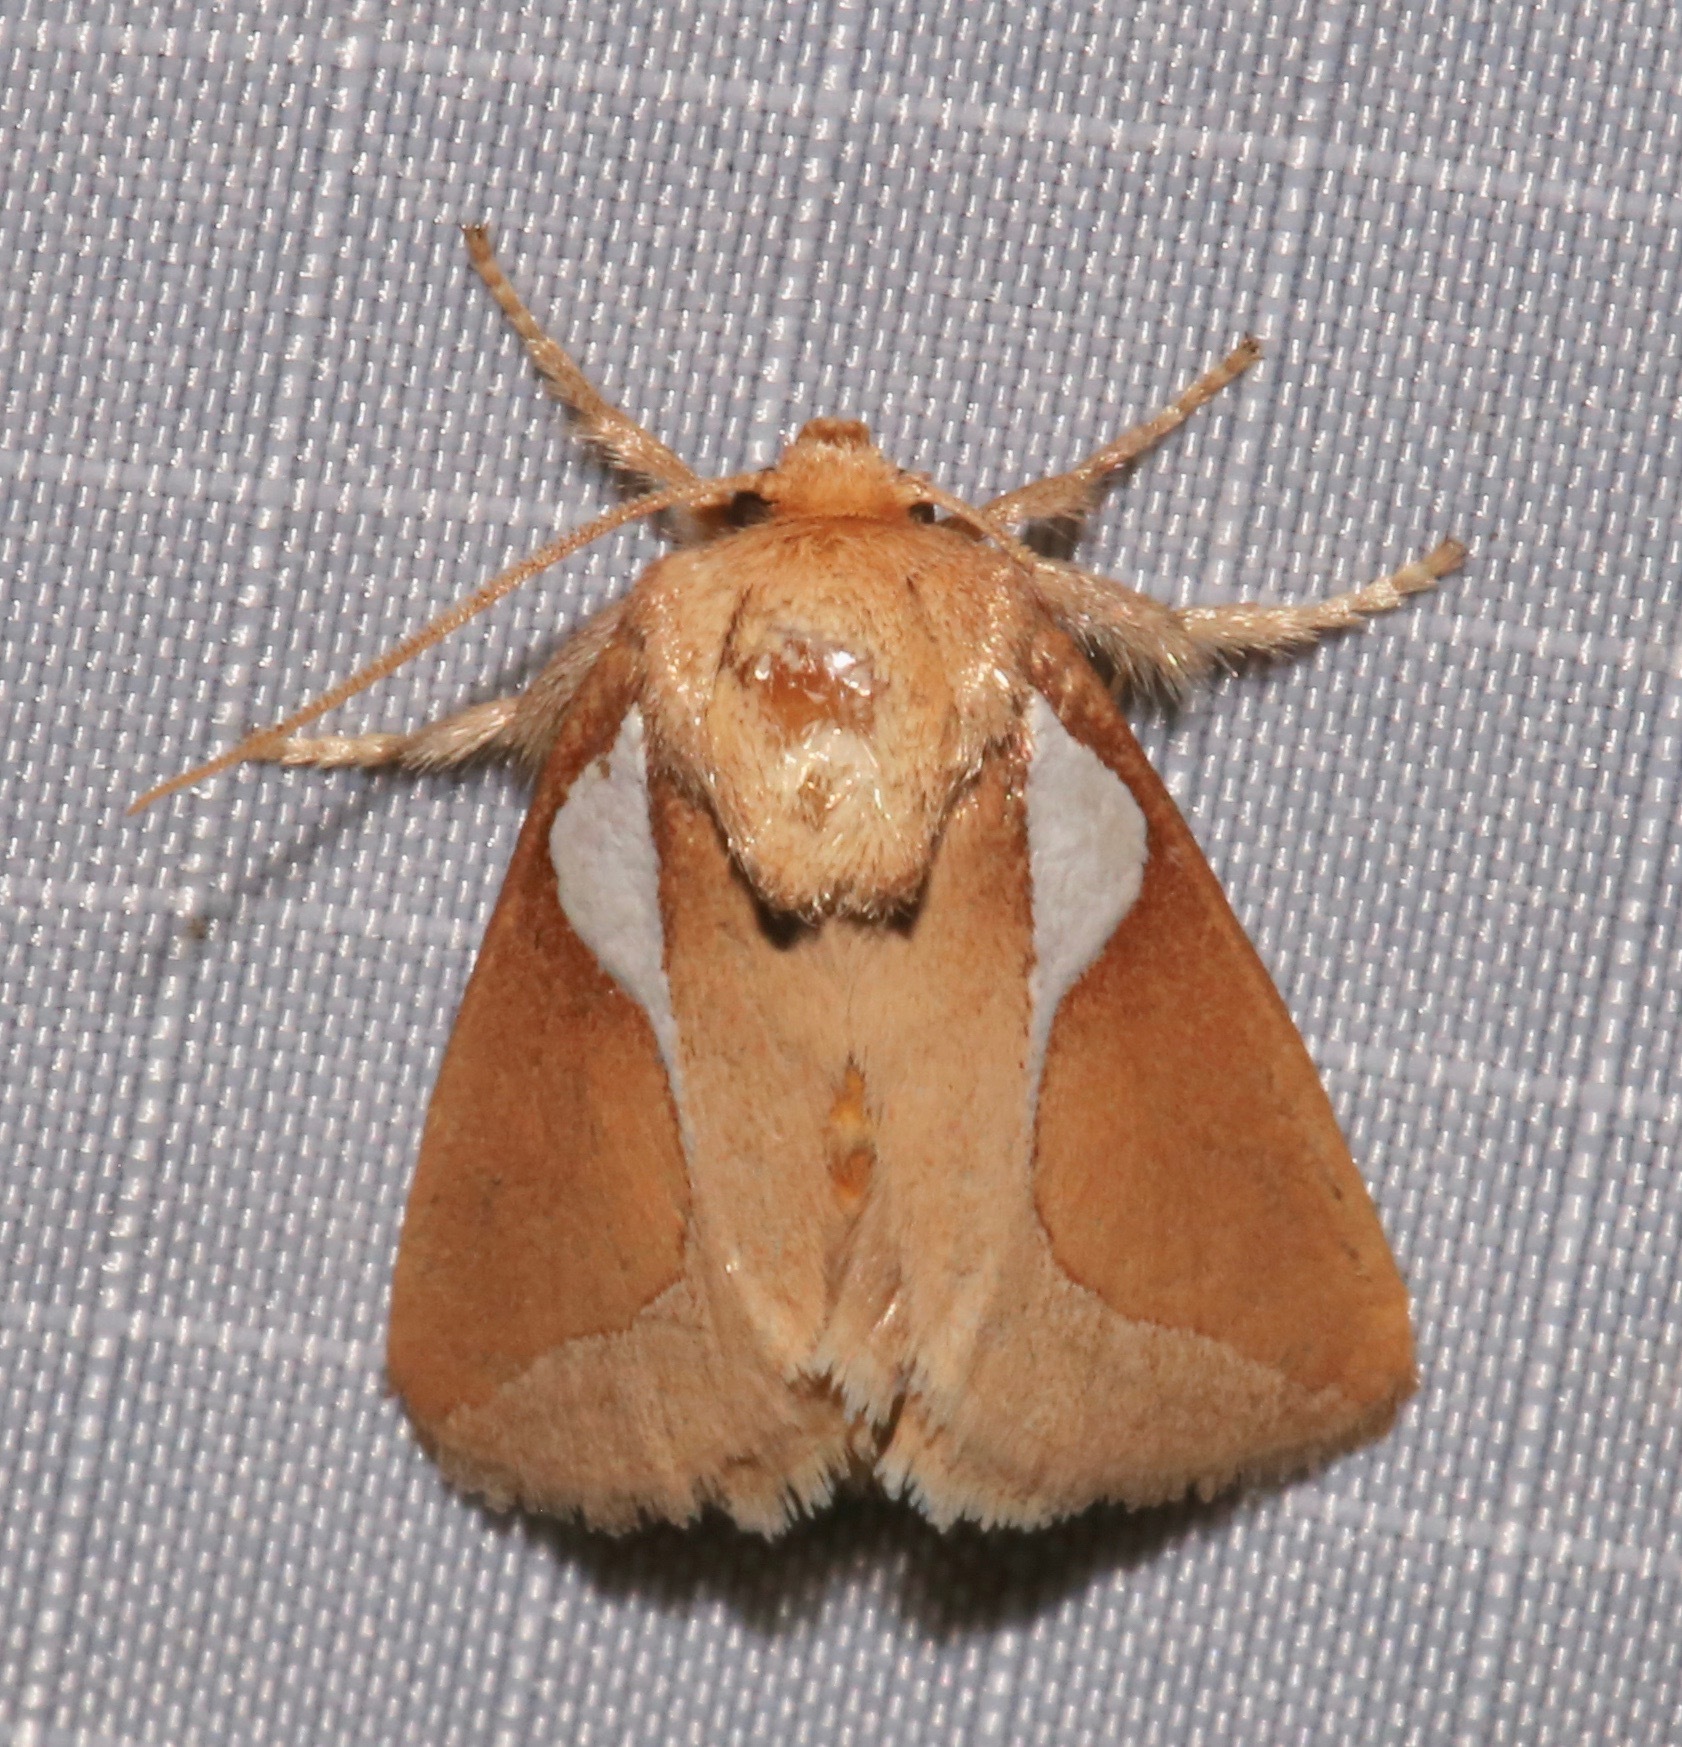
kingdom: Animalia
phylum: Arthropoda
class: Insecta
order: Lepidoptera
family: Limacodidae
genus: Prolimacodes
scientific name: Prolimacodes trigona
